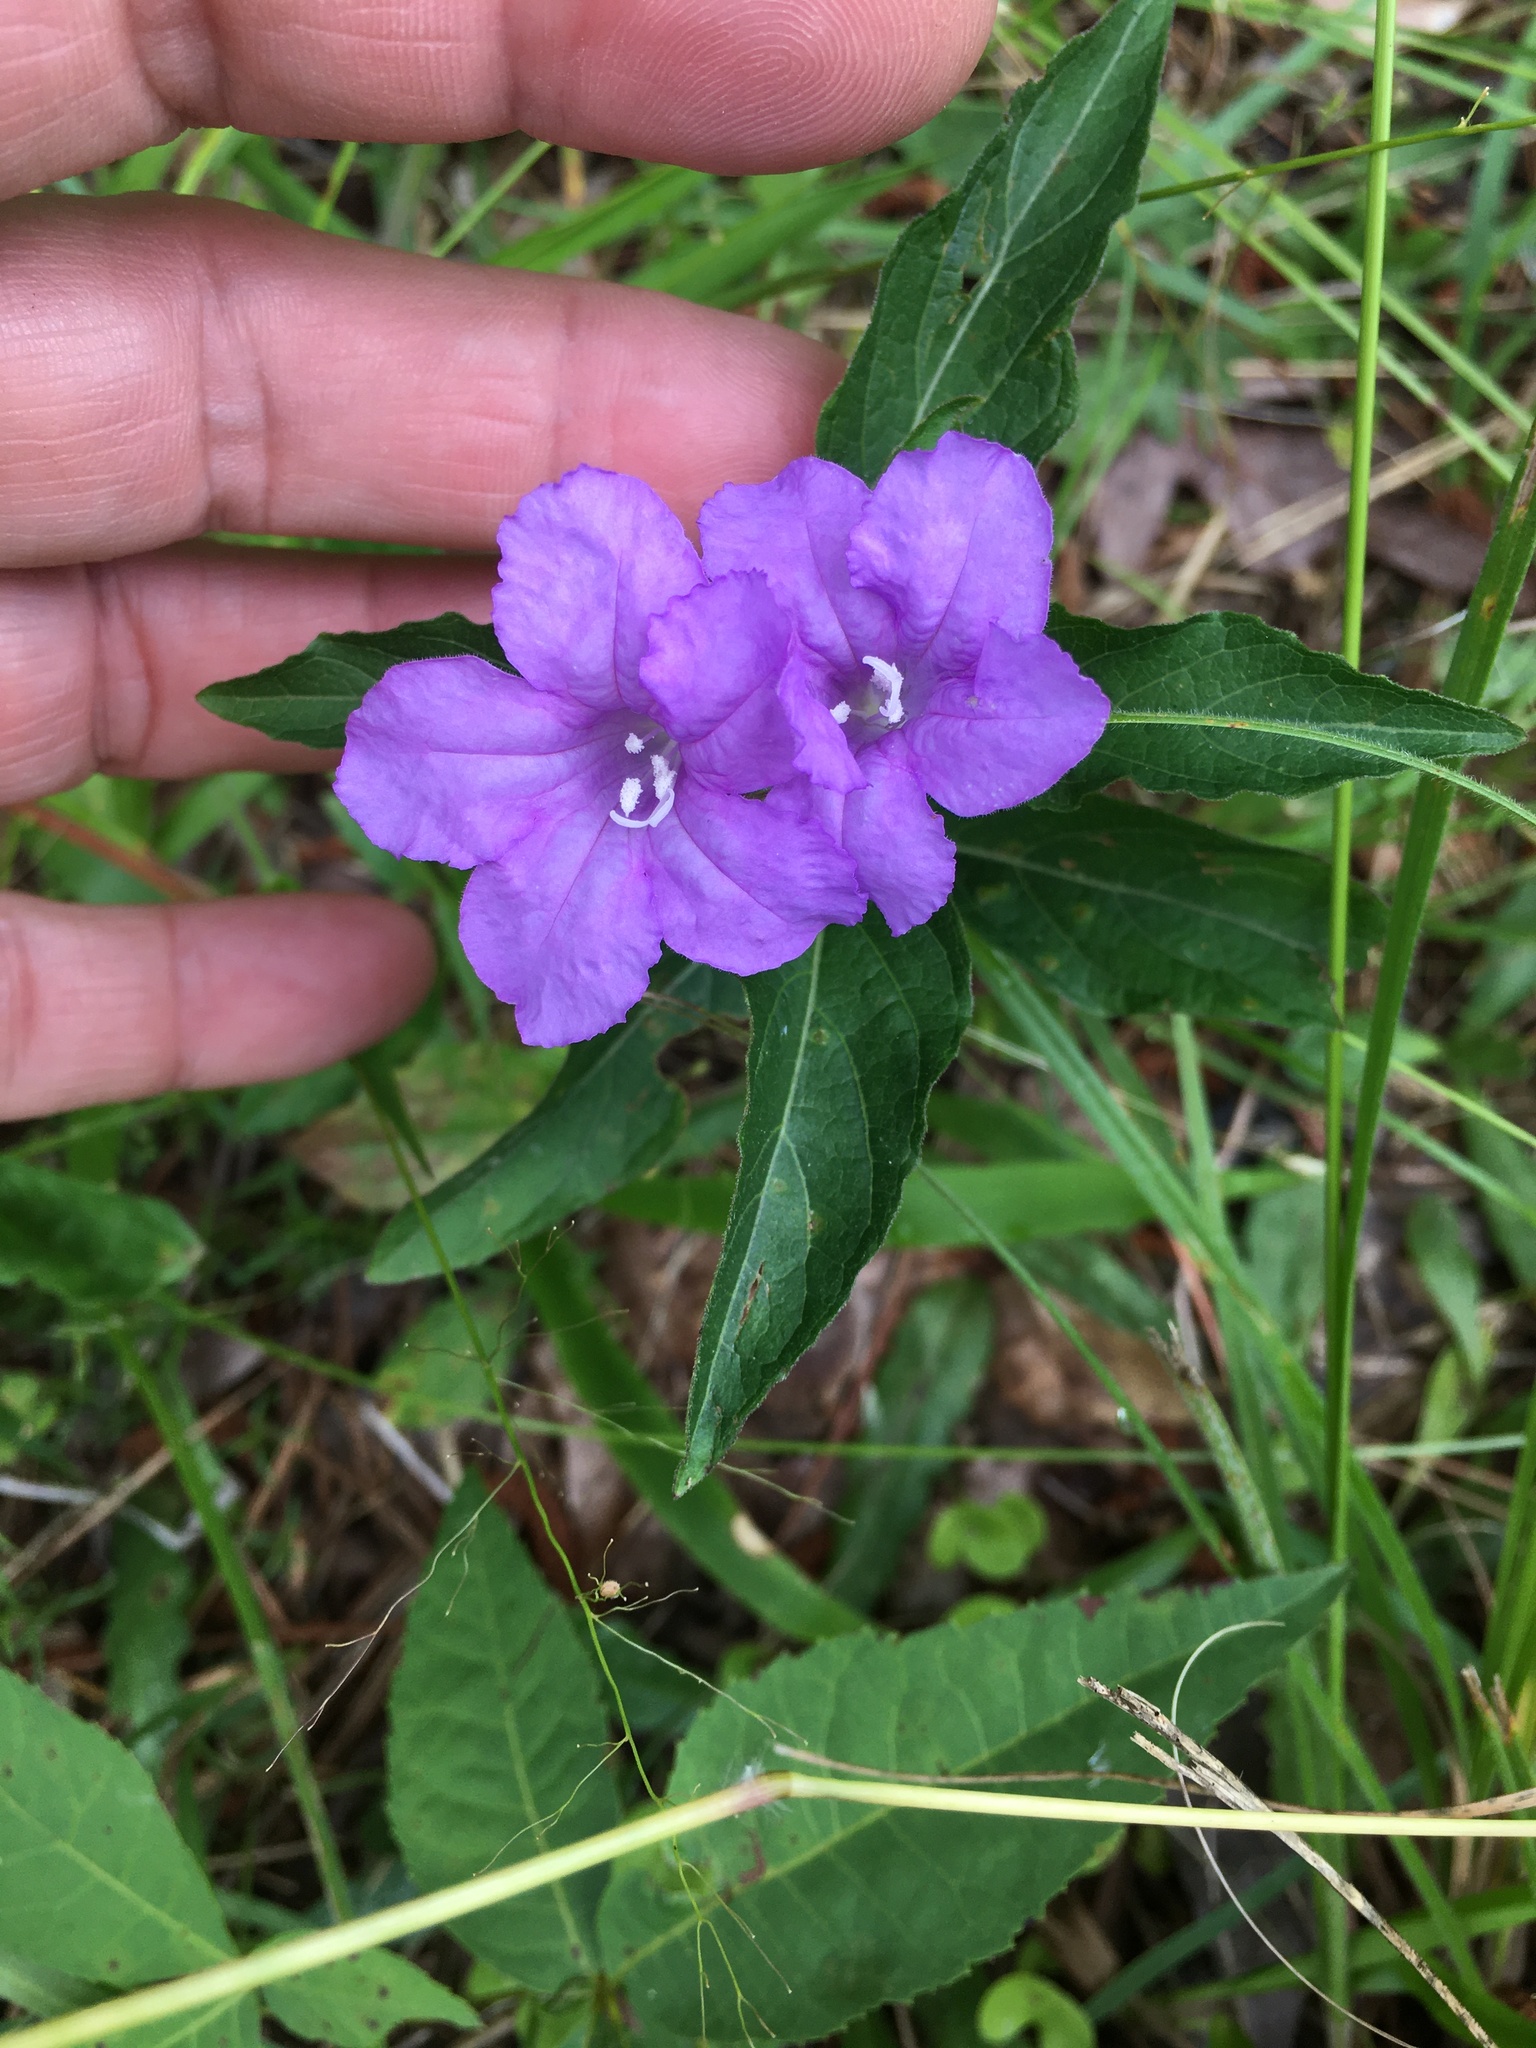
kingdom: Plantae
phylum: Tracheophyta
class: Magnoliopsida
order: Lamiales
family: Acanthaceae
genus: Ruellia
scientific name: Ruellia caroliniensis
